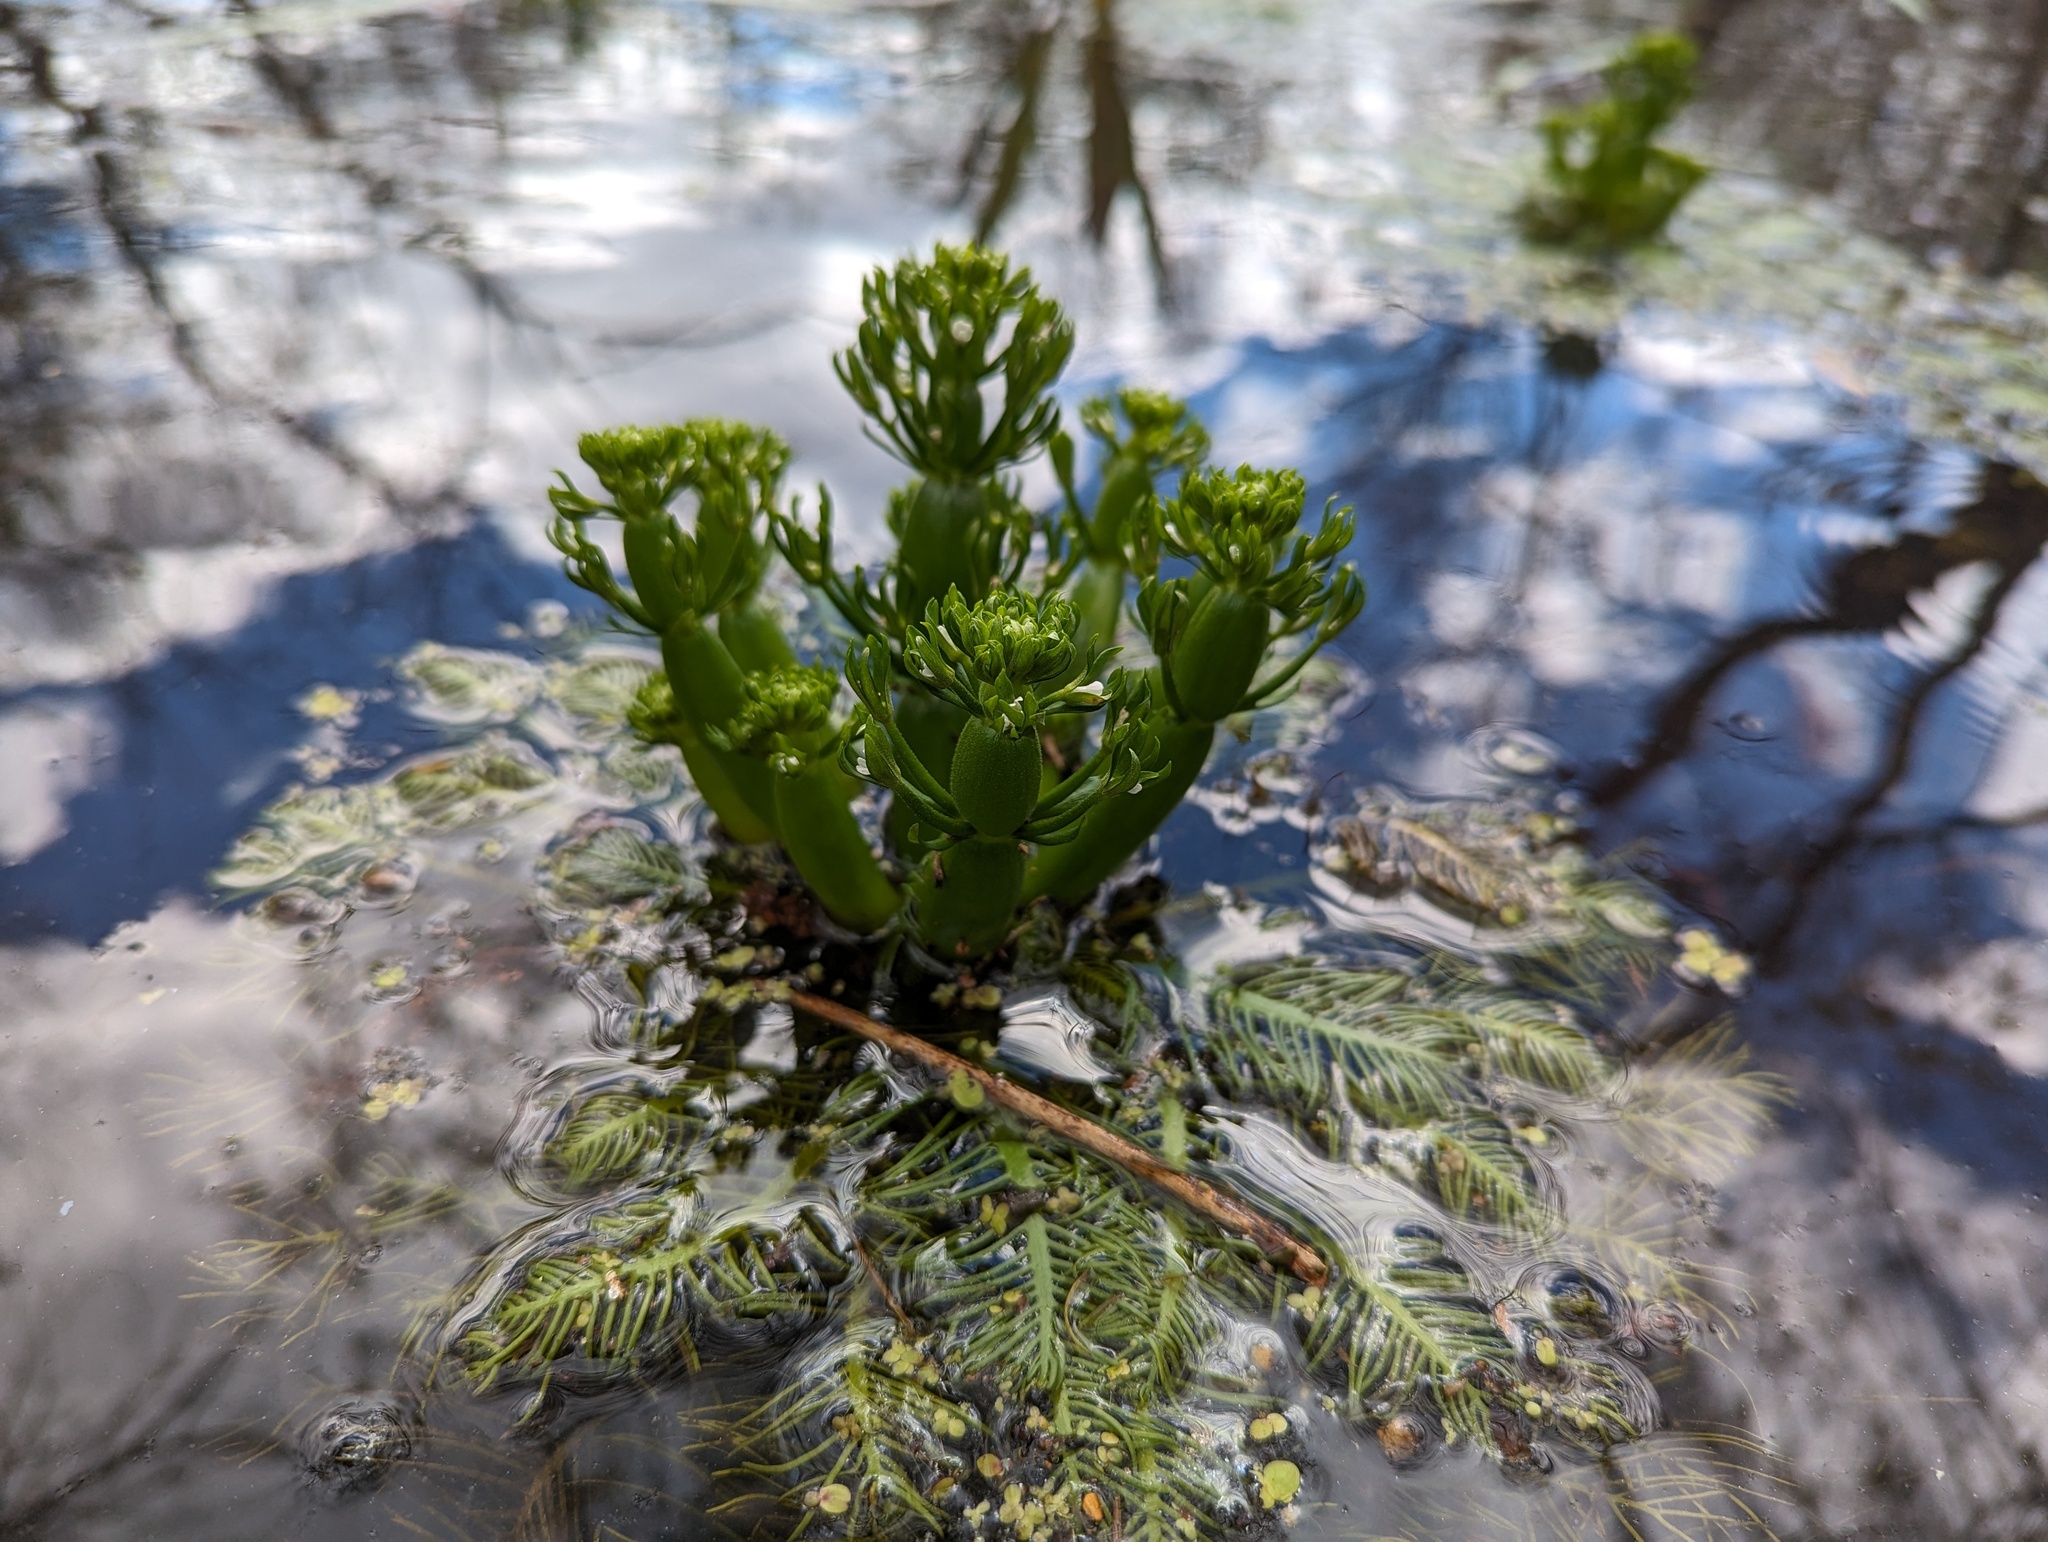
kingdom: Plantae
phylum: Tracheophyta
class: Magnoliopsida
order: Ericales
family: Primulaceae
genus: Hottonia
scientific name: Hottonia inflata
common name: American featherfoil
